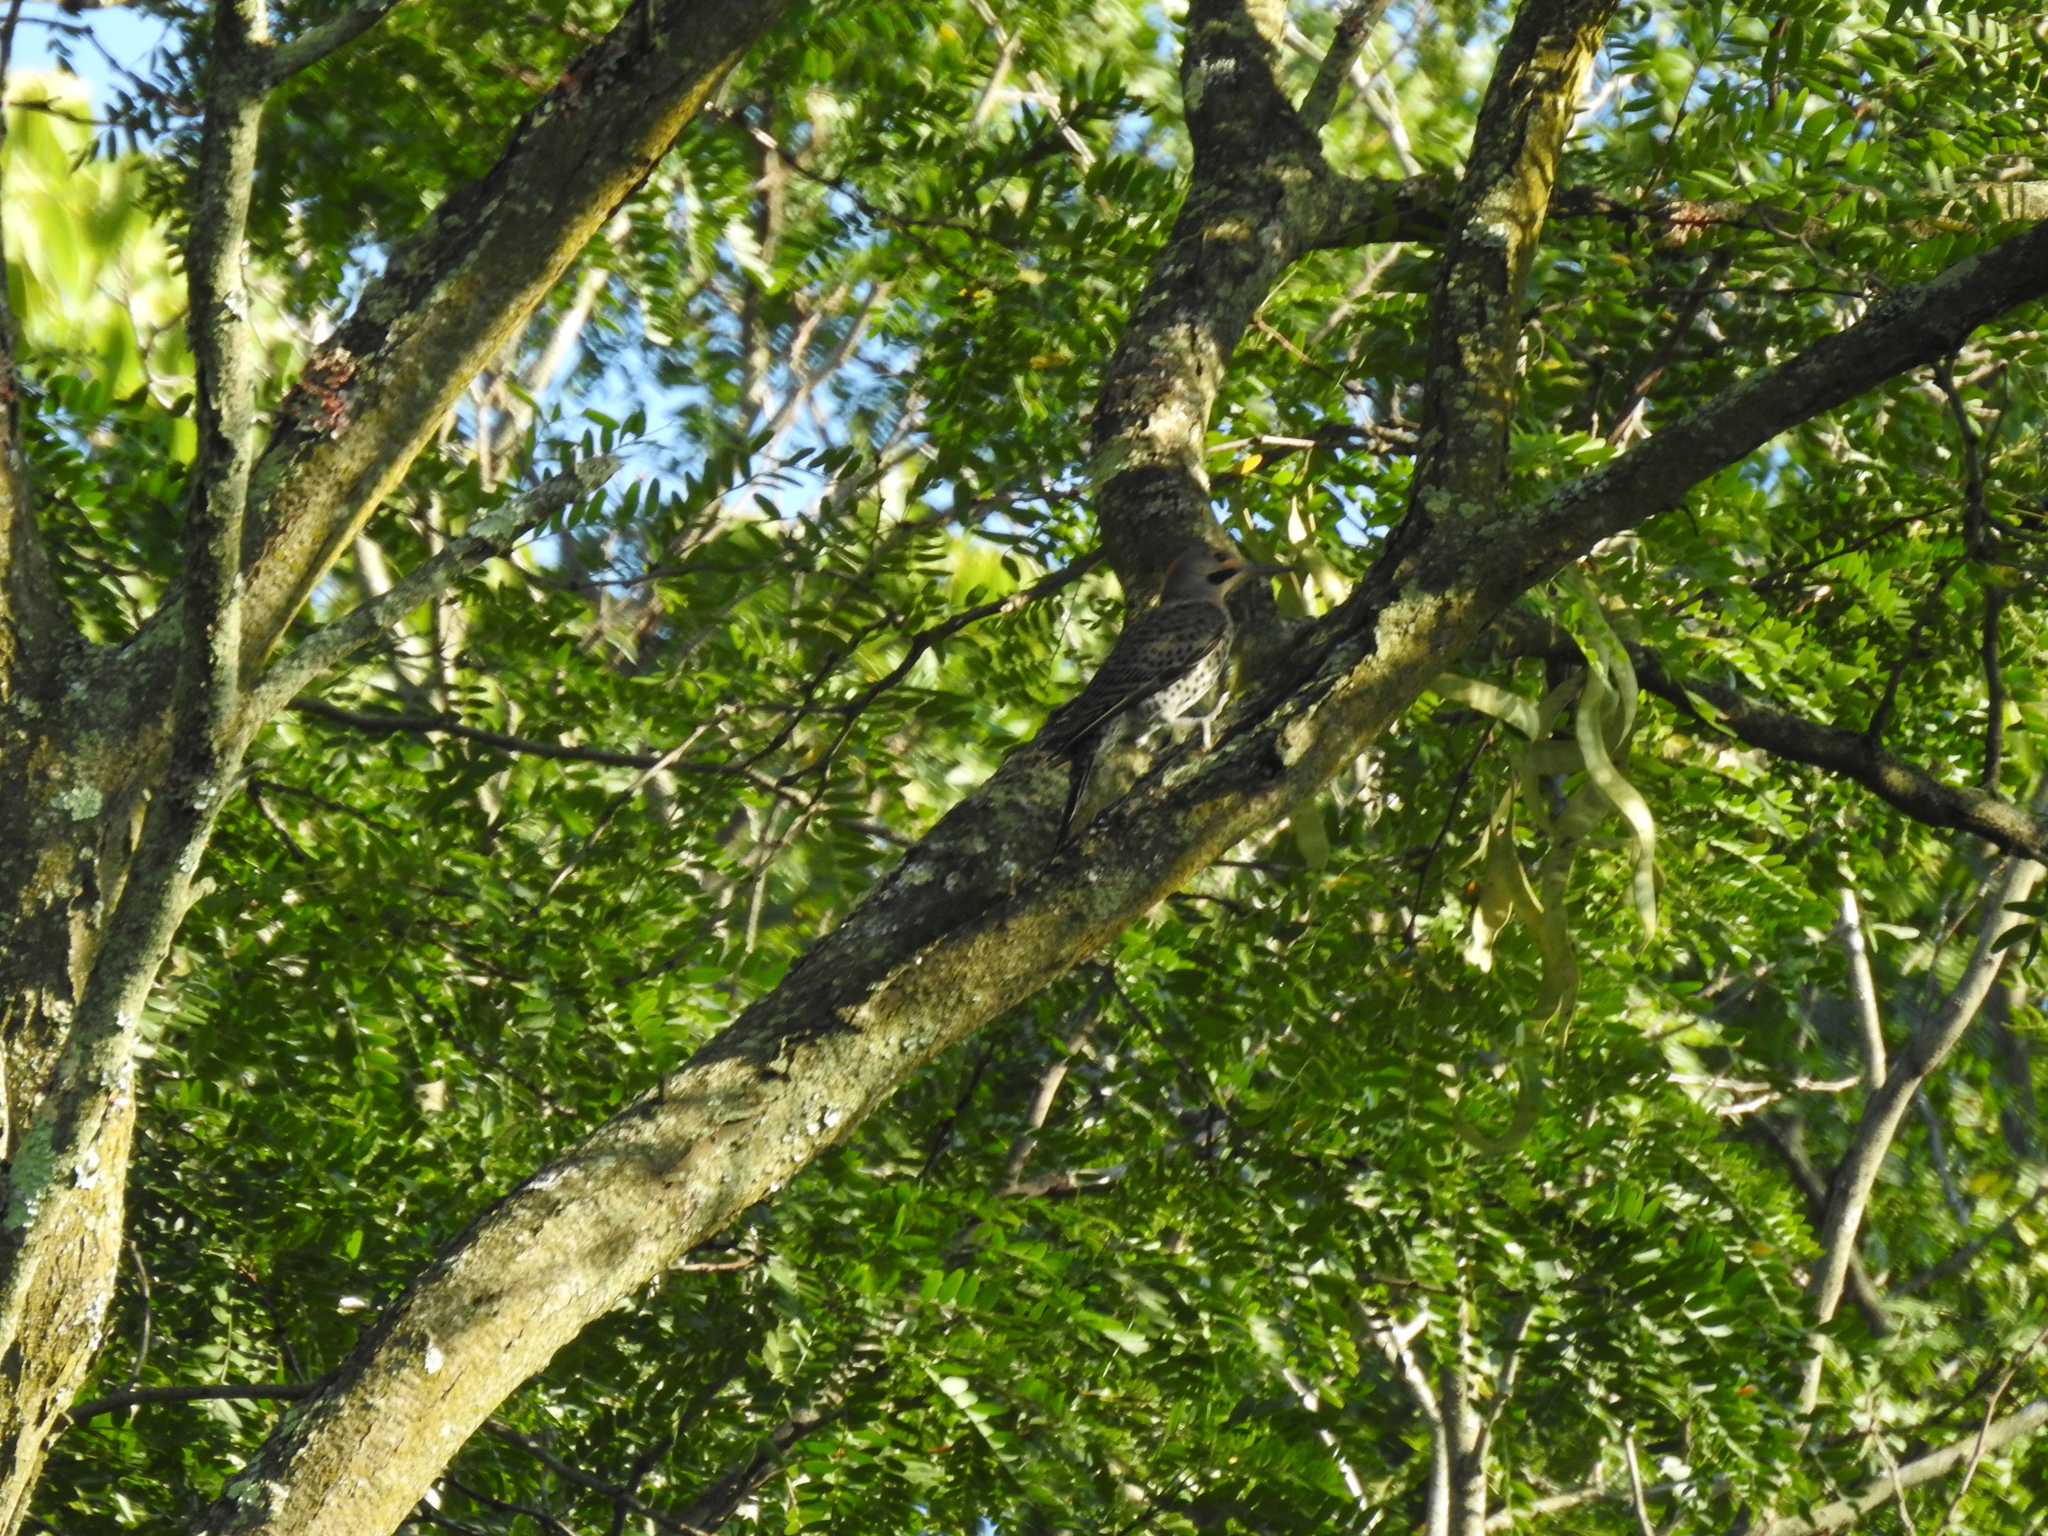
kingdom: Animalia
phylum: Chordata
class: Aves
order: Piciformes
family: Picidae
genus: Colaptes
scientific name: Colaptes auratus
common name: Northern flicker
